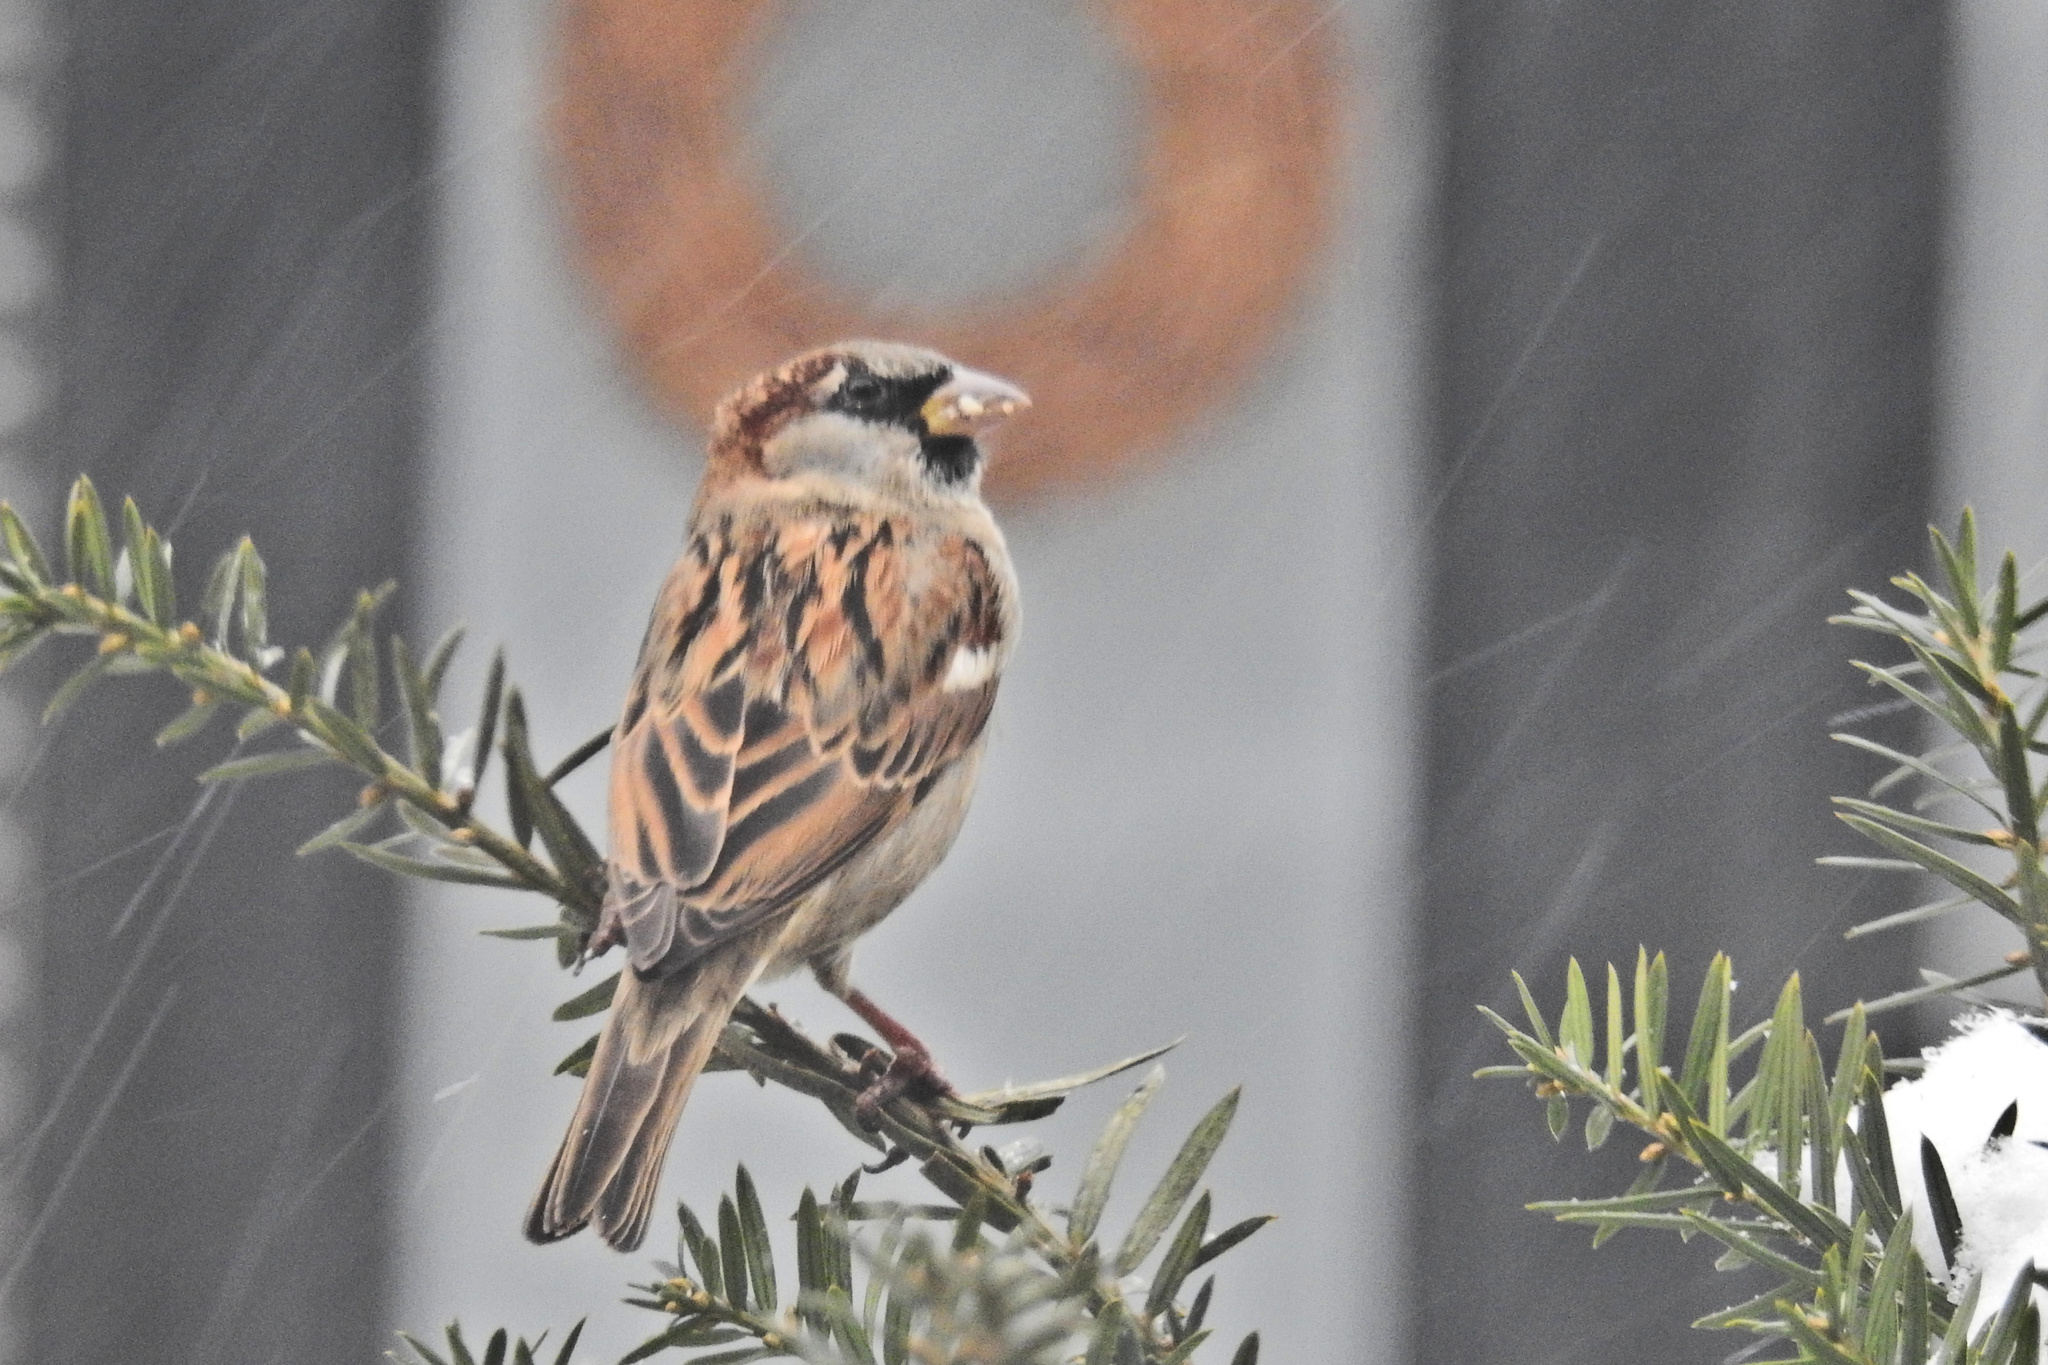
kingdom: Animalia
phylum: Chordata
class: Aves
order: Passeriformes
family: Passeridae
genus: Passer
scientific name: Passer domesticus
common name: House sparrow
